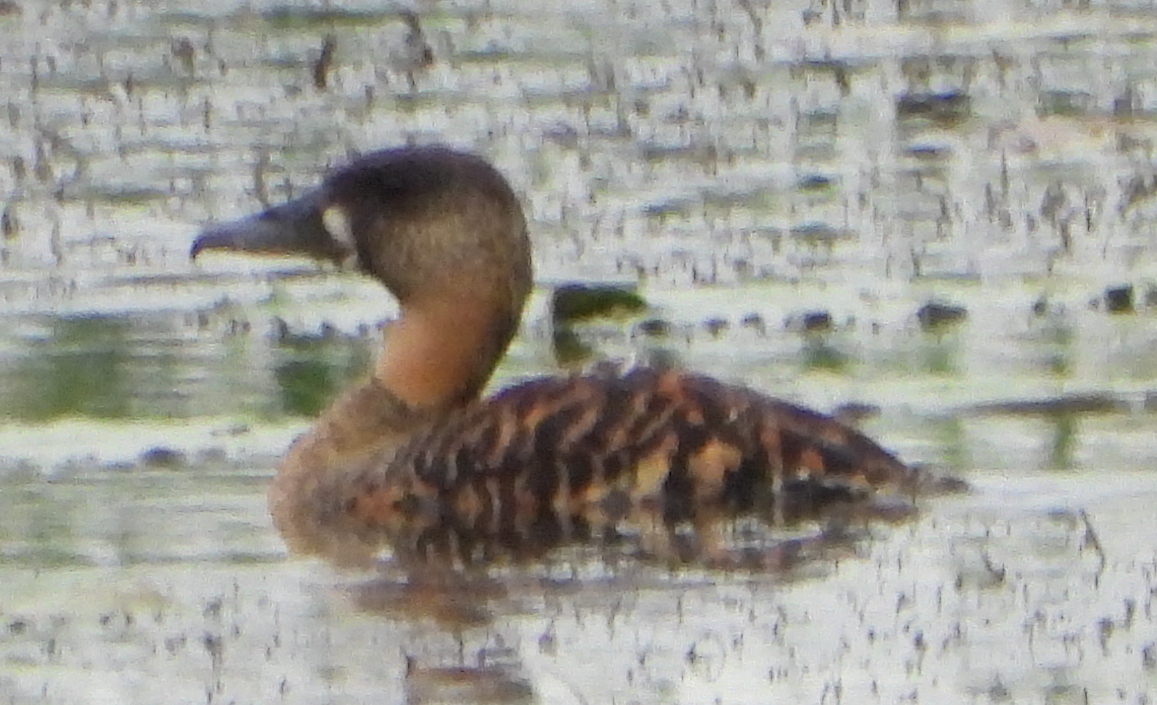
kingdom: Animalia
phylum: Chordata
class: Aves
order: Anseriformes
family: Anatidae
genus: Thalassornis
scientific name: Thalassornis leuconotus
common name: White-backed duck
